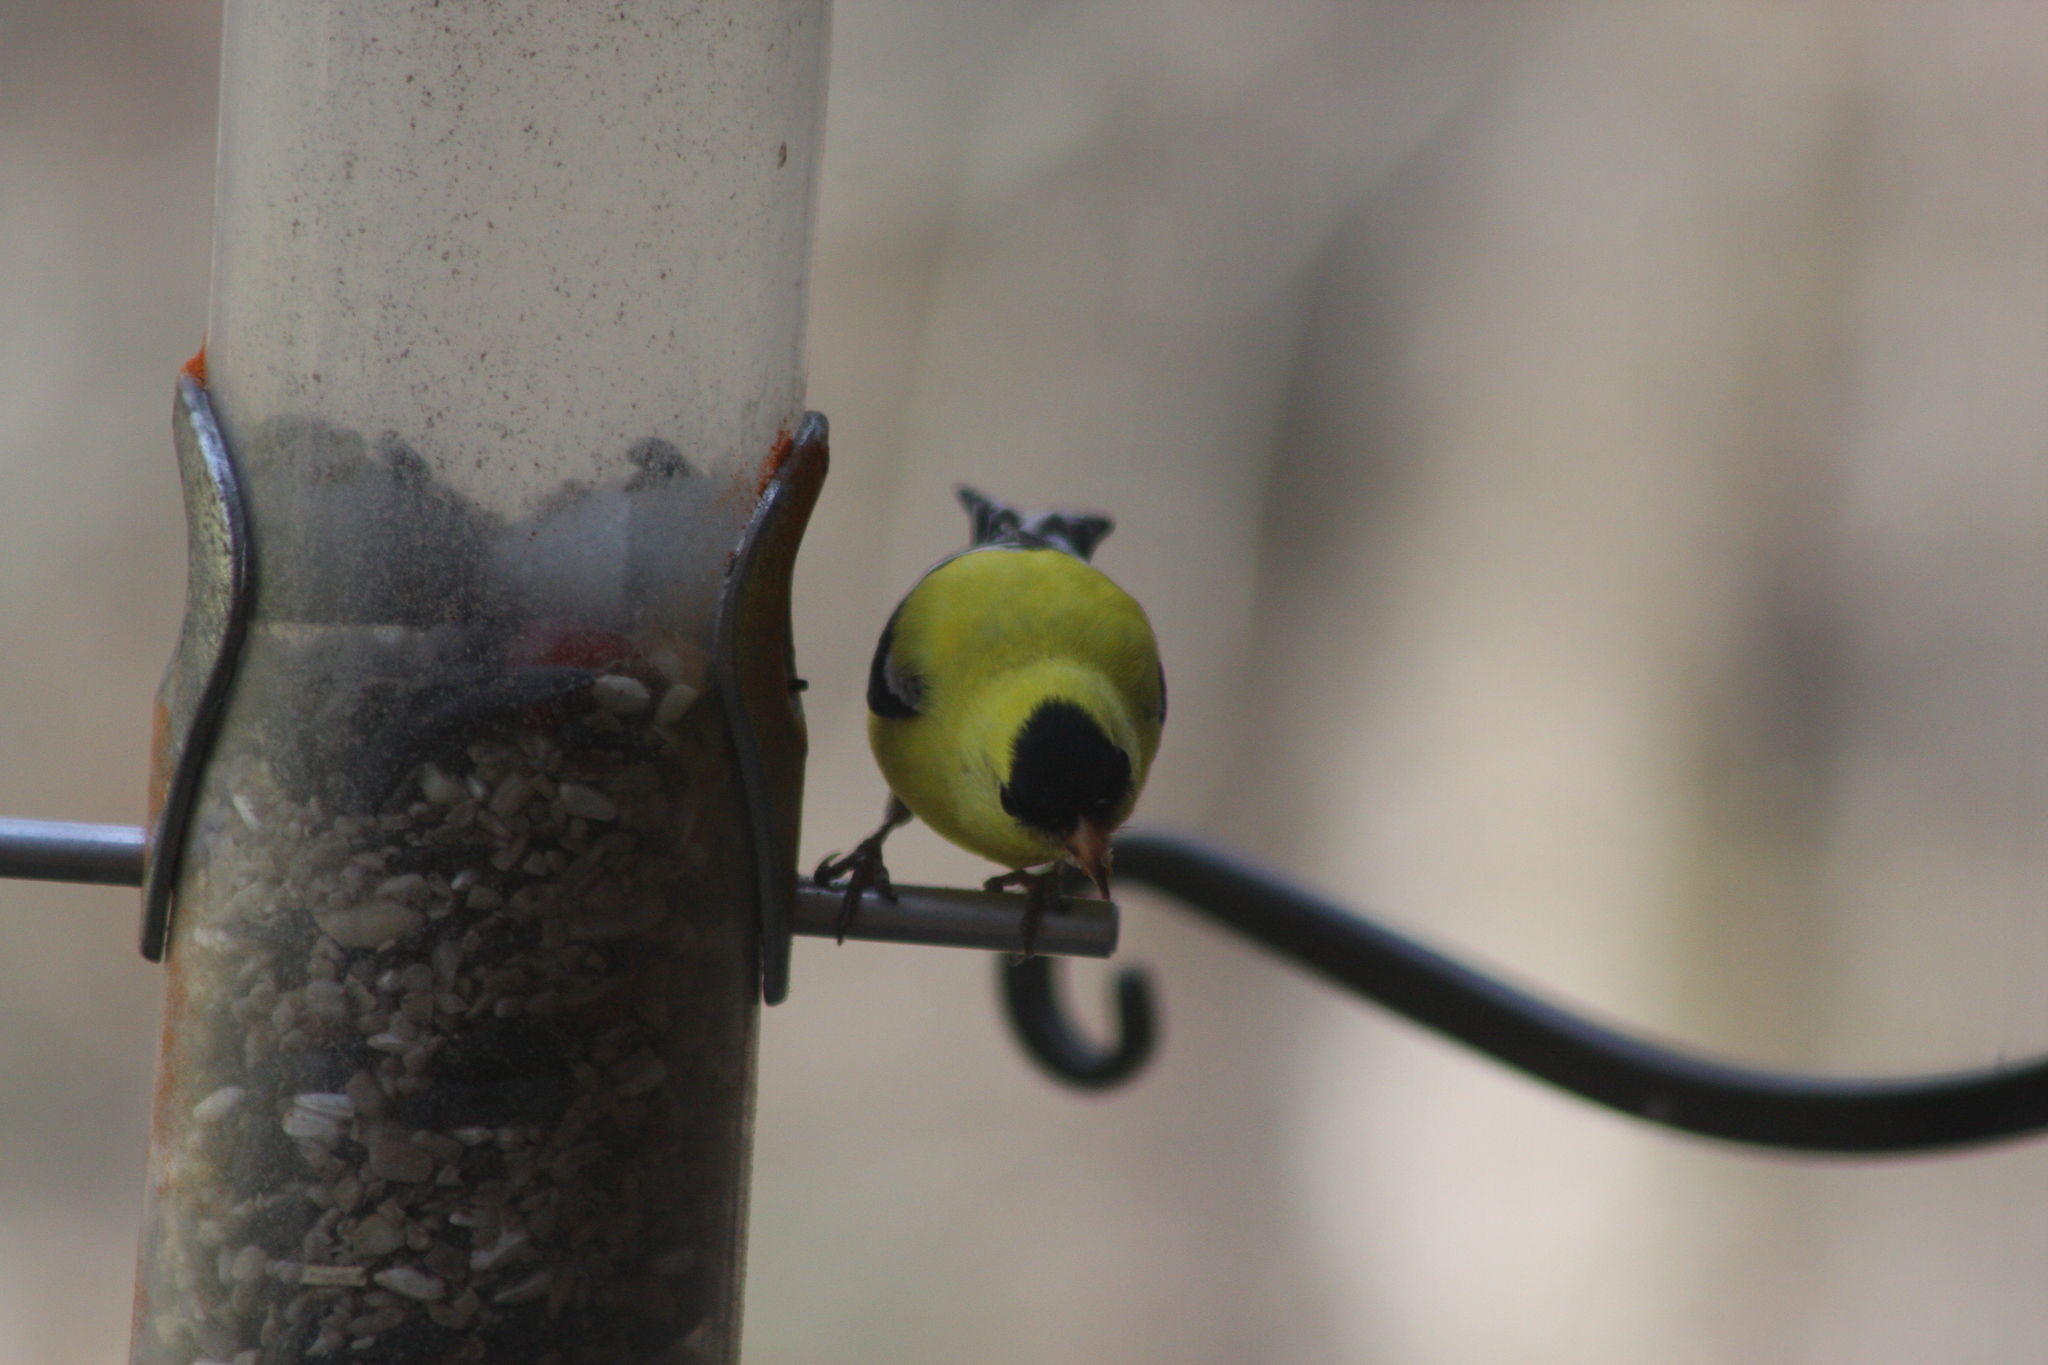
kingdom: Animalia
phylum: Chordata
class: Aves
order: Passeriformes
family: Fringillidae
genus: Spinus
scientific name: Spinus tristis
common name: American goldfinch
